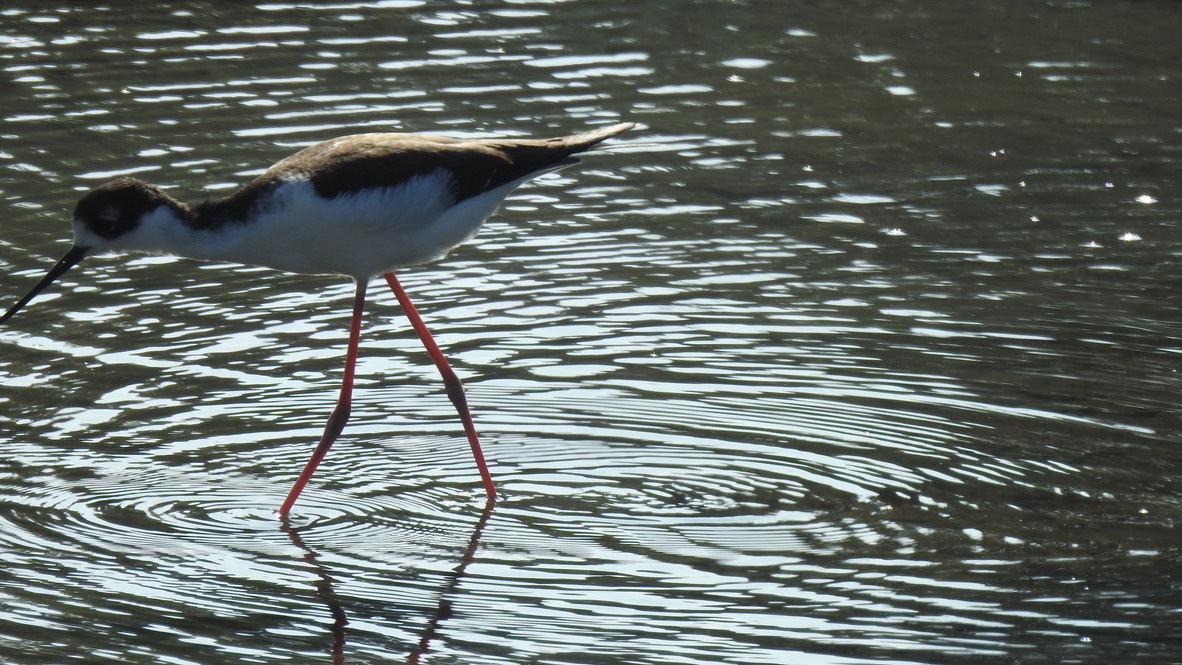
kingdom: Animalia
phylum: Chordata
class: Aves
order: Charadriiformes
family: Recurvirostridae
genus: Himantopus
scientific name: Himantopus mexicanus
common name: Black-necked stilt
